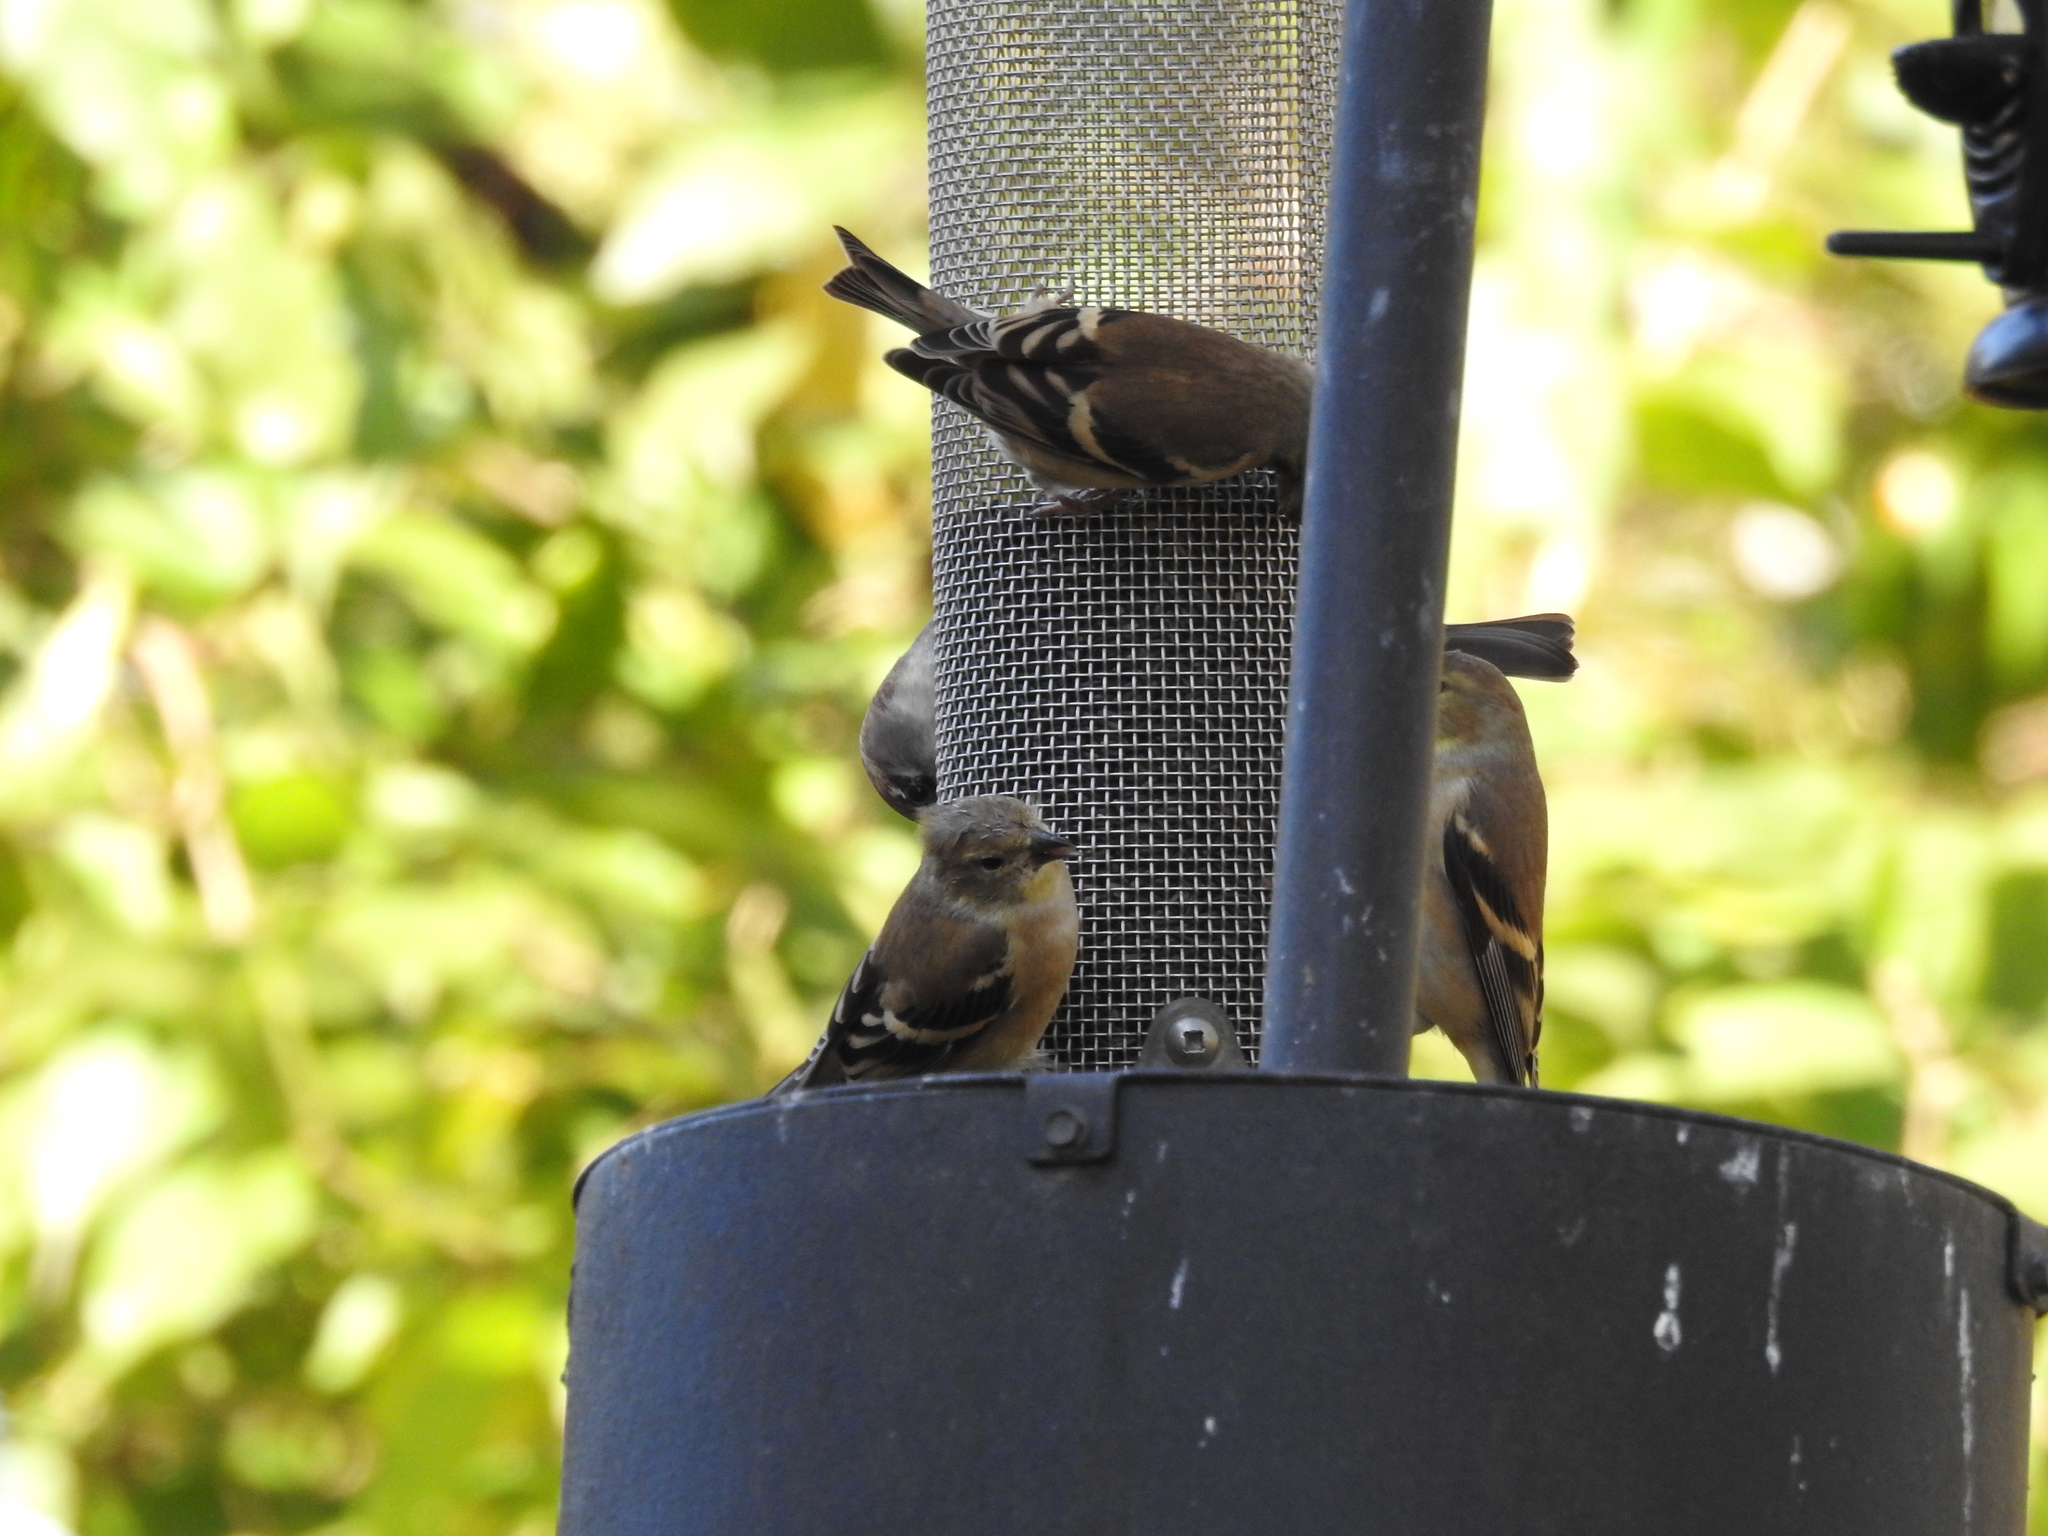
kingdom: Animalia
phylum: Chordata
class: Aves
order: Passeriformes
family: Fringillidae
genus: Spinus
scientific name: Spinus tristis
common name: American goldfinch
